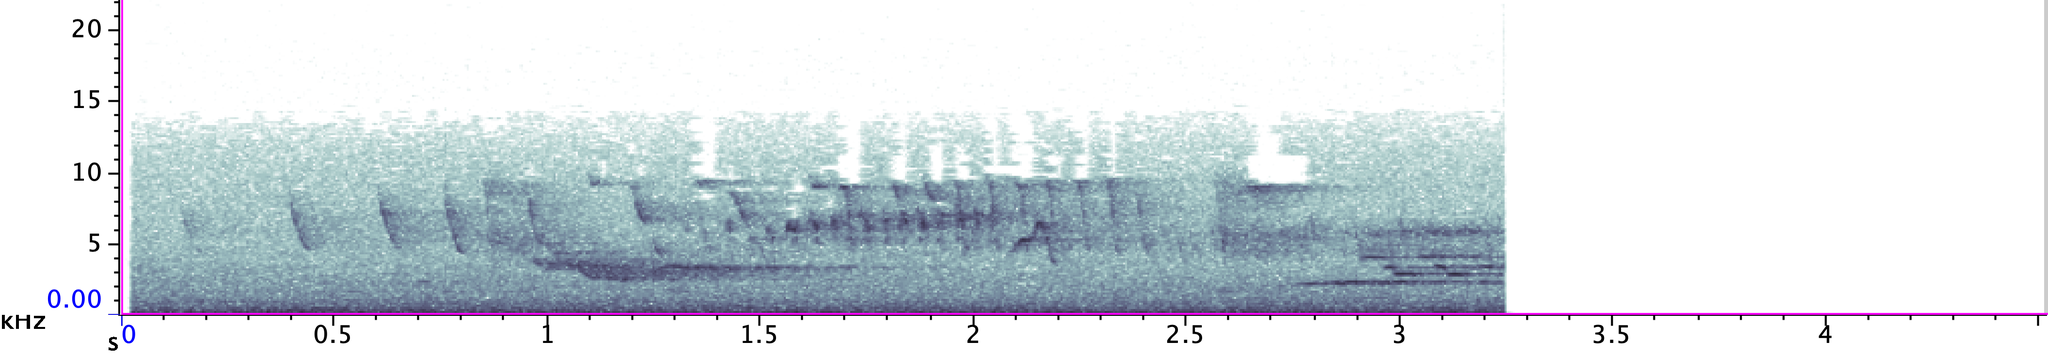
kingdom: Animalia
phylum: Chordata
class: Aves
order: Passeriformes
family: Parulidae
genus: Helmitheros
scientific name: Helmitheros vermivorum
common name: Worm-eating warbler
